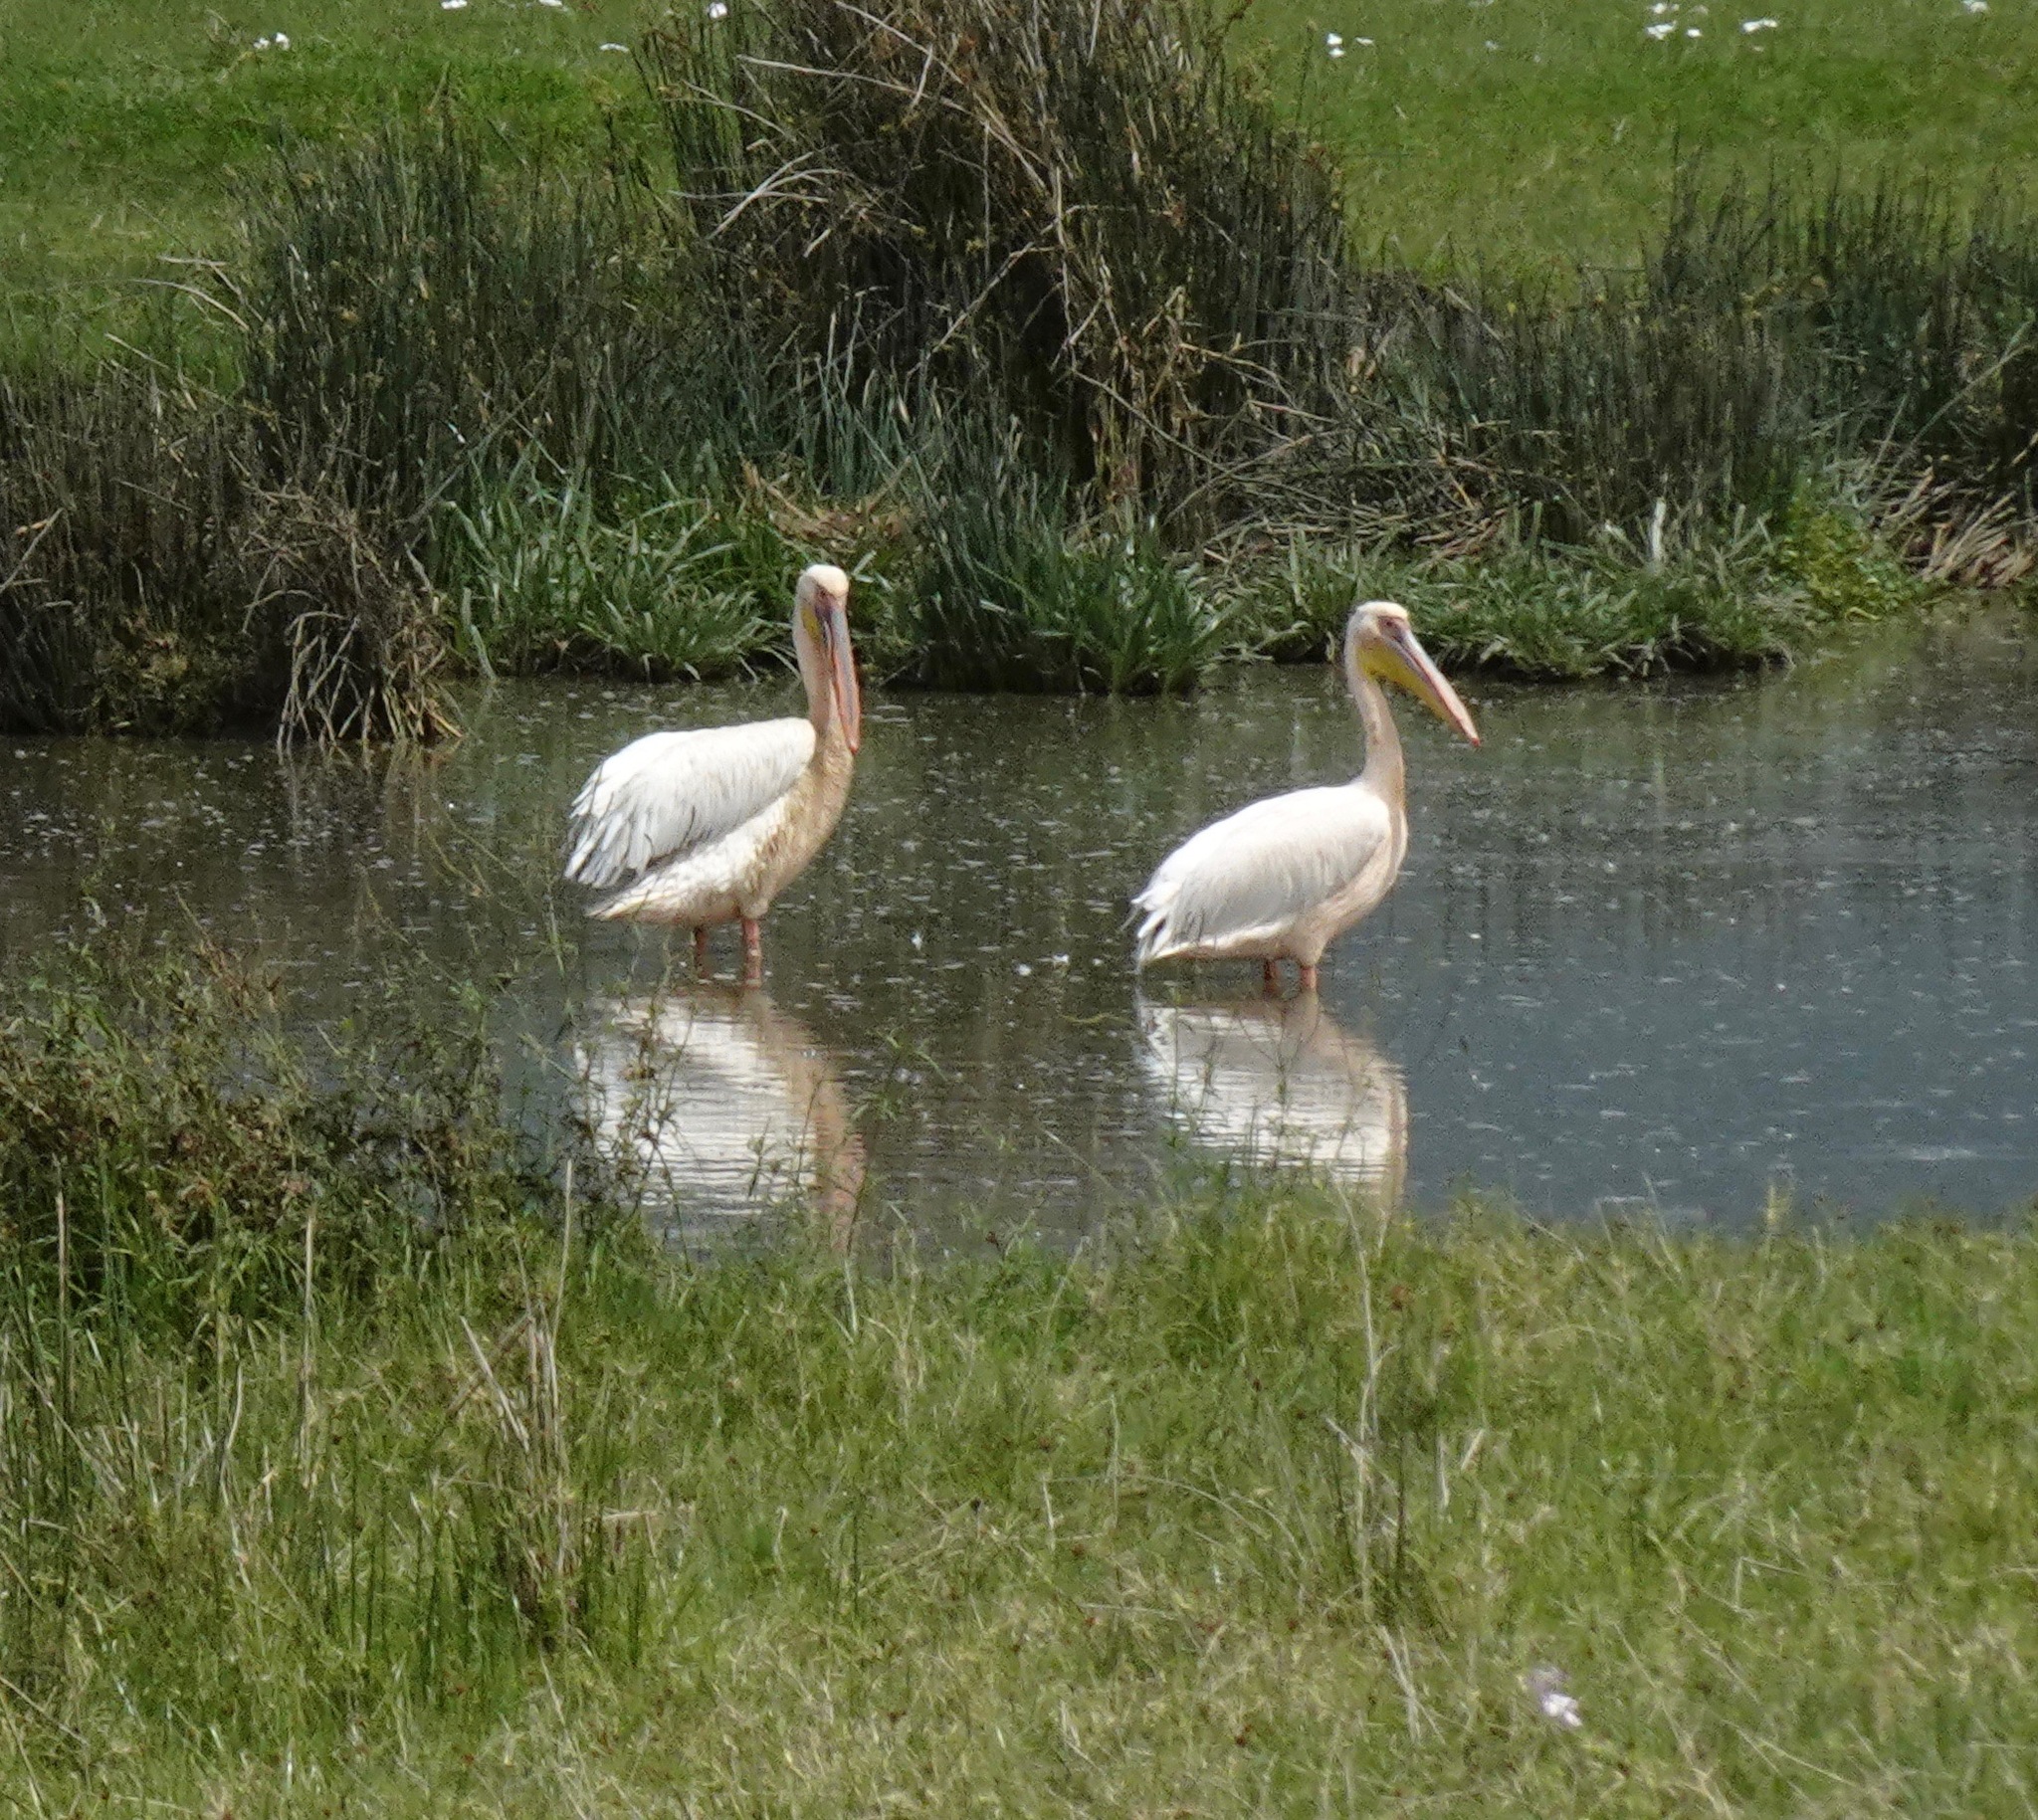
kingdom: Animalia
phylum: Chordata
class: Aves
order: Pelecaniformes
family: Pelecanidae
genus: Pelecanus
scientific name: Pelecanus onocrotalus
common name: Great white pelican
